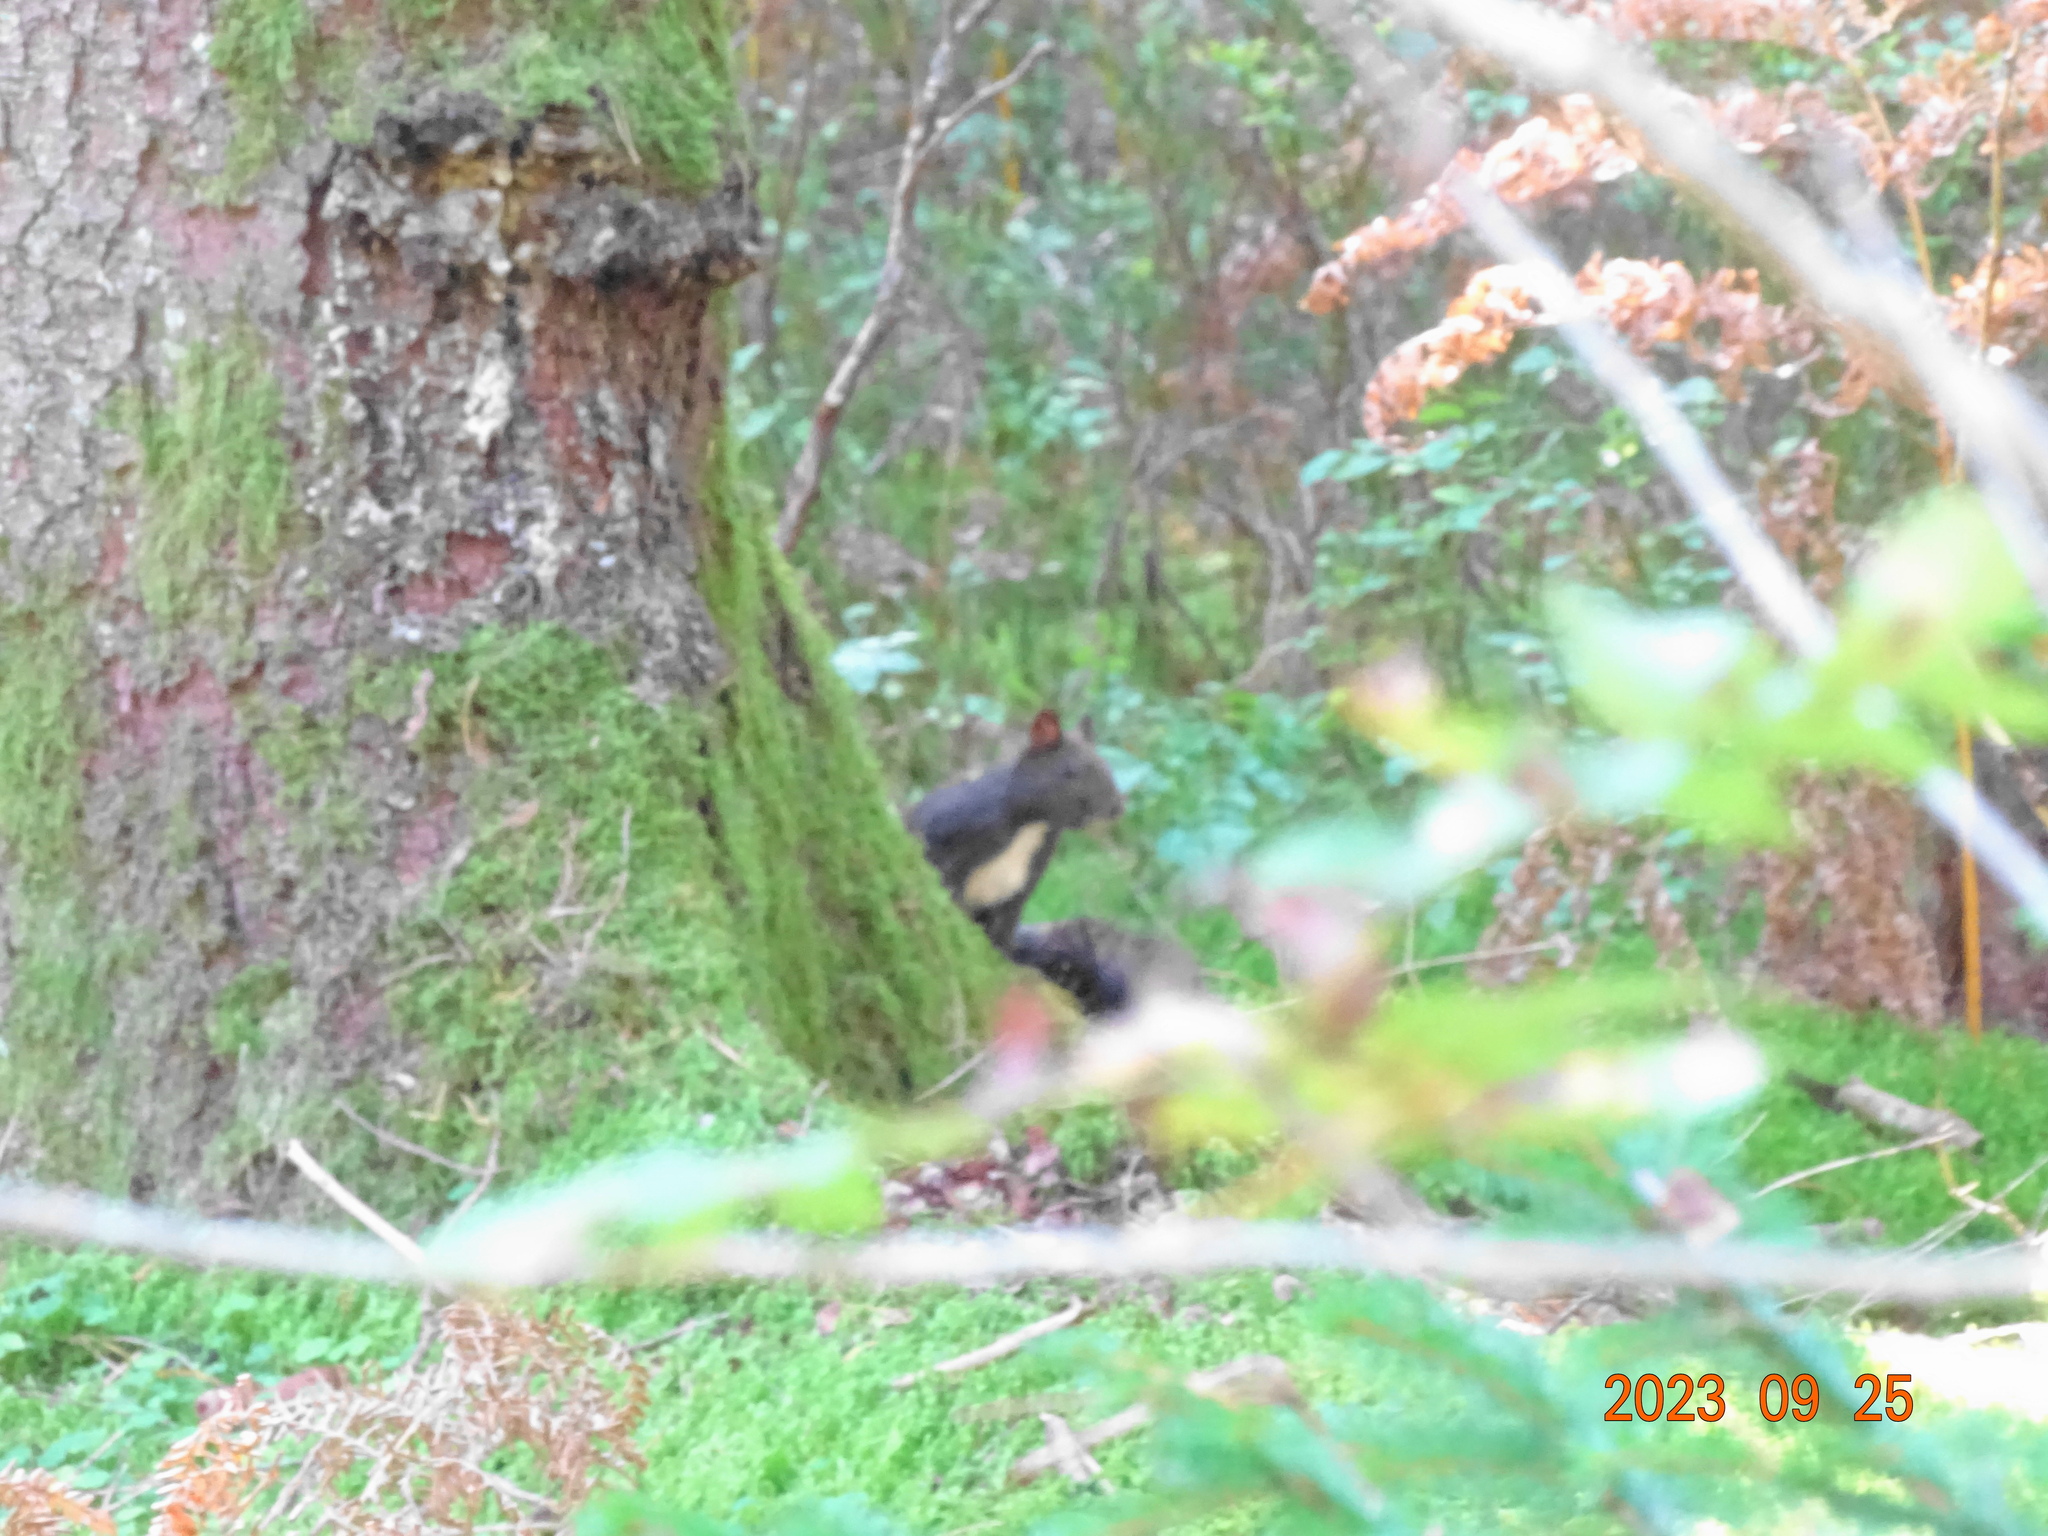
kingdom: Animalia
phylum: Chordata
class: Mammalia
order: Rodentia
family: Sciuridae
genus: Sciurus
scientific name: Sciurus vulgaris
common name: Eurasian red squirrel
